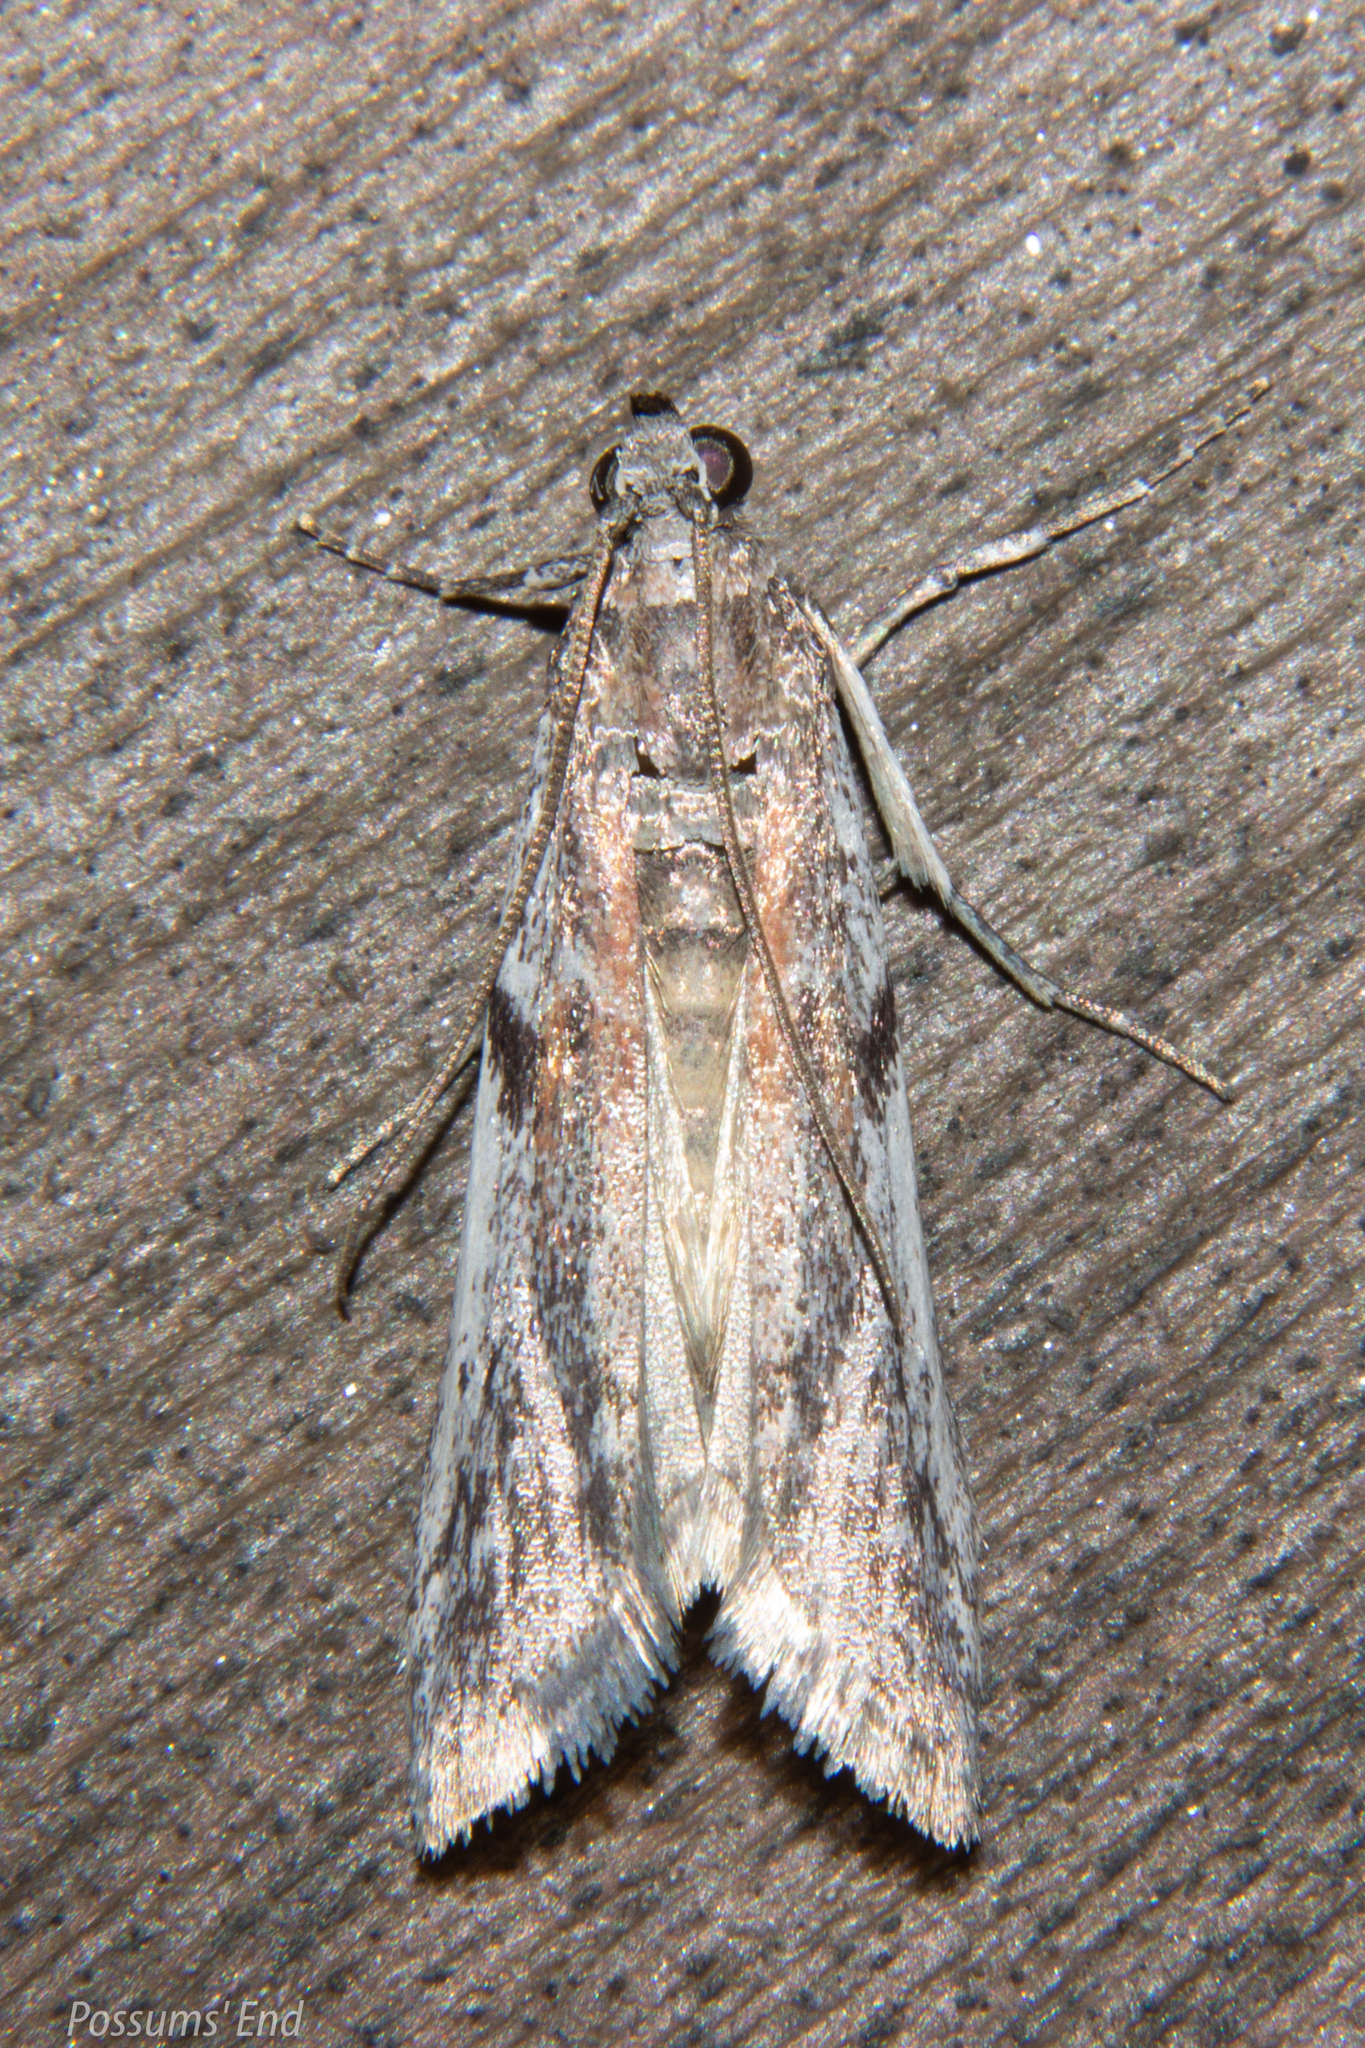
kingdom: Animalia
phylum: Arthropoda
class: Insecta
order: Lepidoptera
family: Pyralidae
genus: Patagoniodes
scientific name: Patagoniodes farinaria
